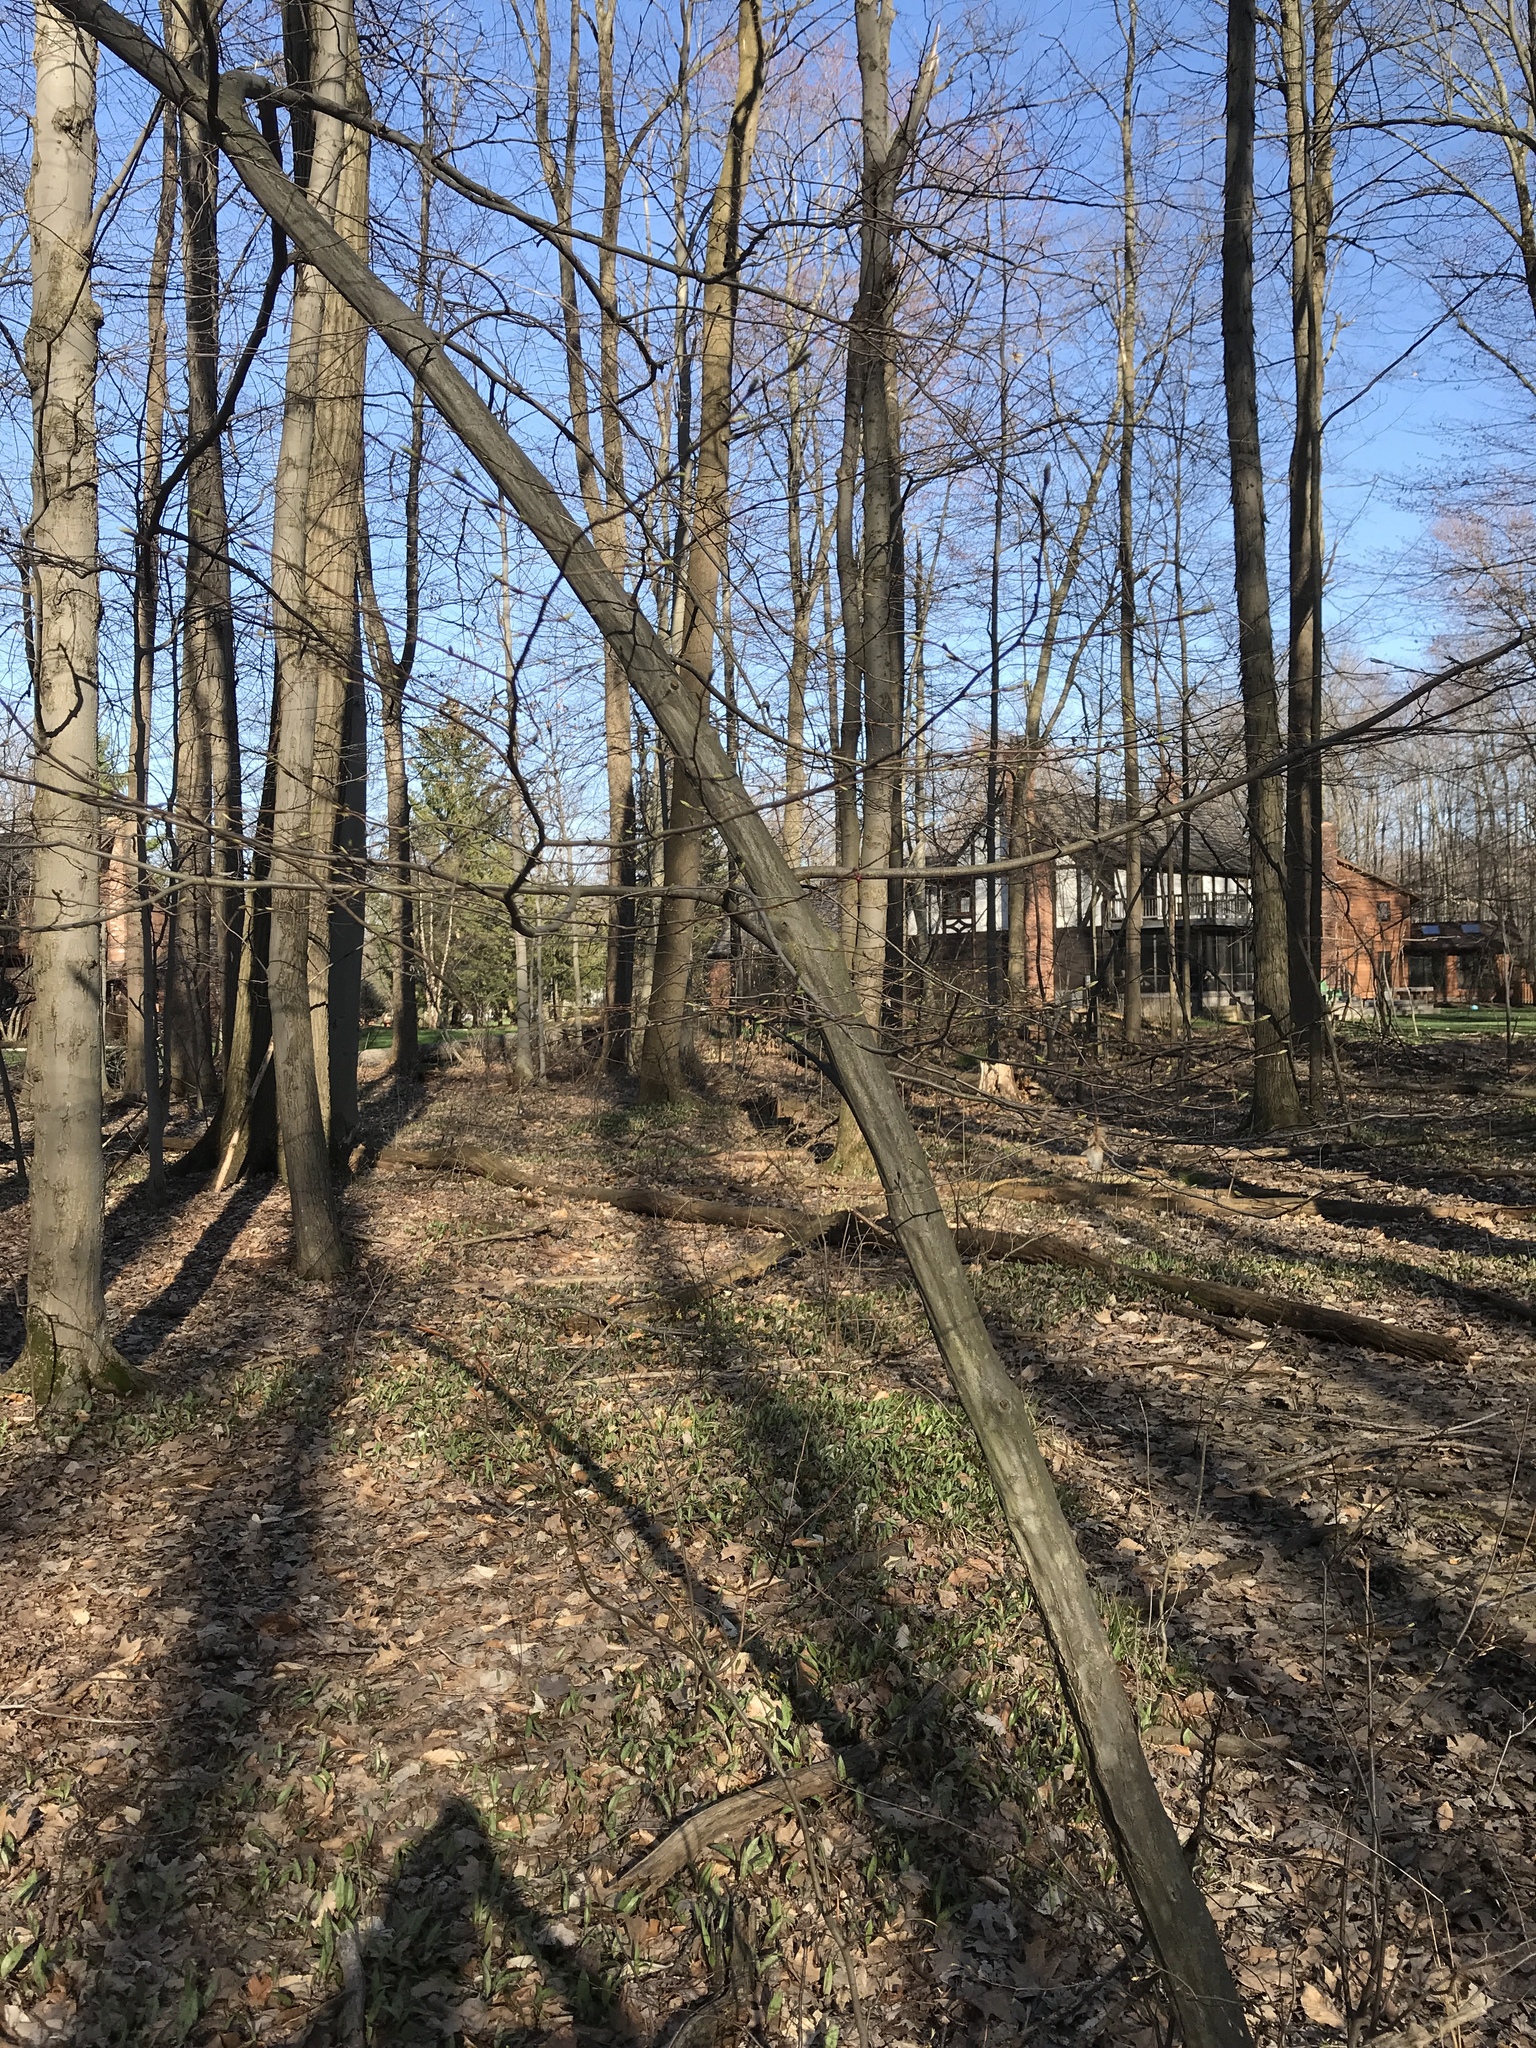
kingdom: Plantae
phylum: Tracheophyta
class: Magnoliopsida
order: Fagales
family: Betulaceae
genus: Carpinus
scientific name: Carpinus caroliniana
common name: American hornbeam
